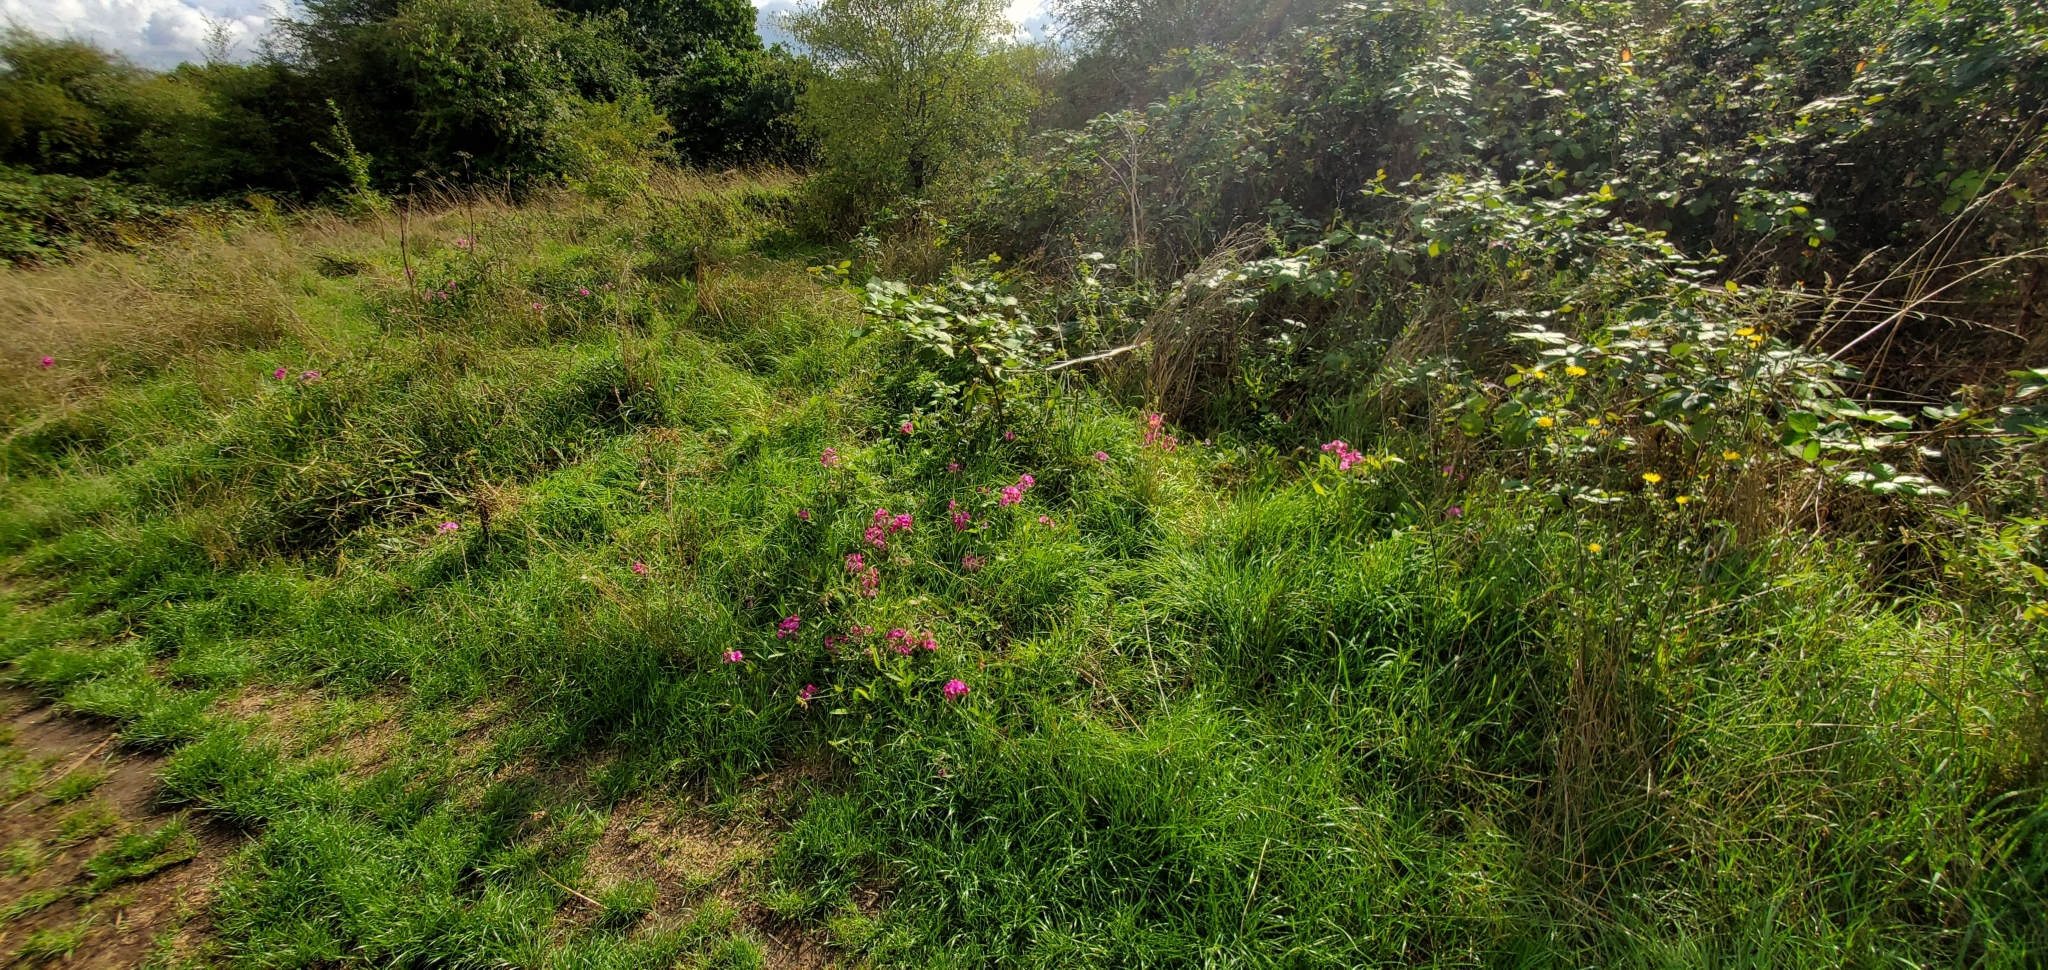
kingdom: Plantae
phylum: Tracheophyta
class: Magnoliopsida
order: Fabales
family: Fabaceae
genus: Lathyrus
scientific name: Lathyrus latifolius
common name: Perennial pea
